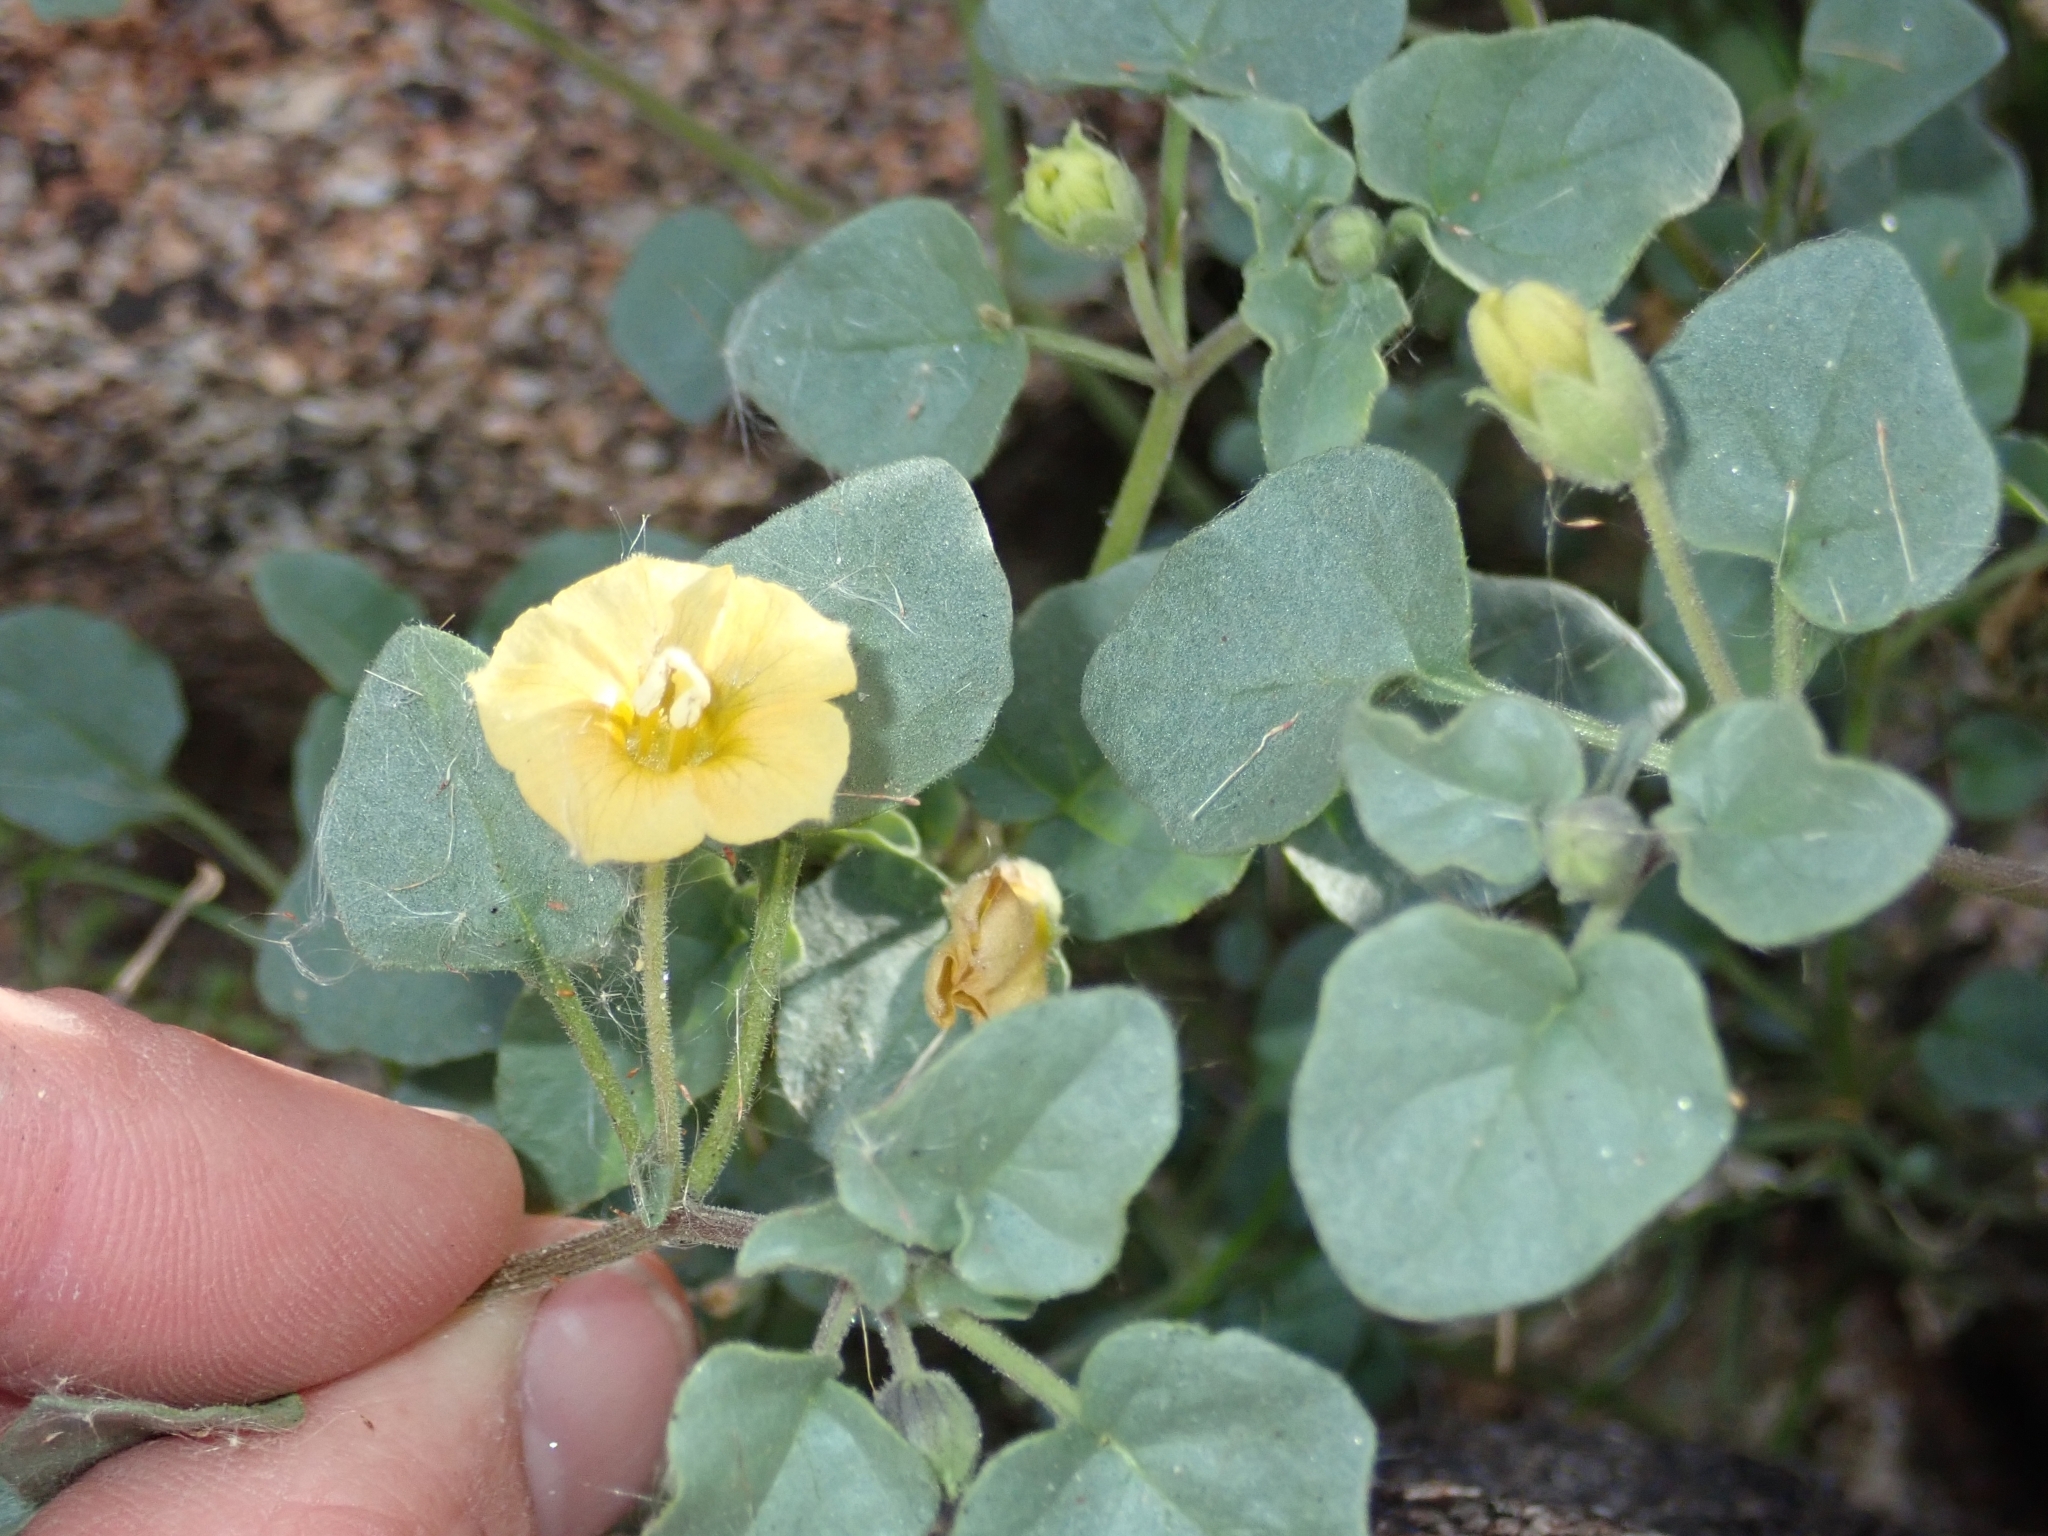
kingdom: Plantae
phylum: Tracheophyta
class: Magnoliopsida
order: Solanales
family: Solanaceae
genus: Physalis
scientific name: Physalis crassifolia
